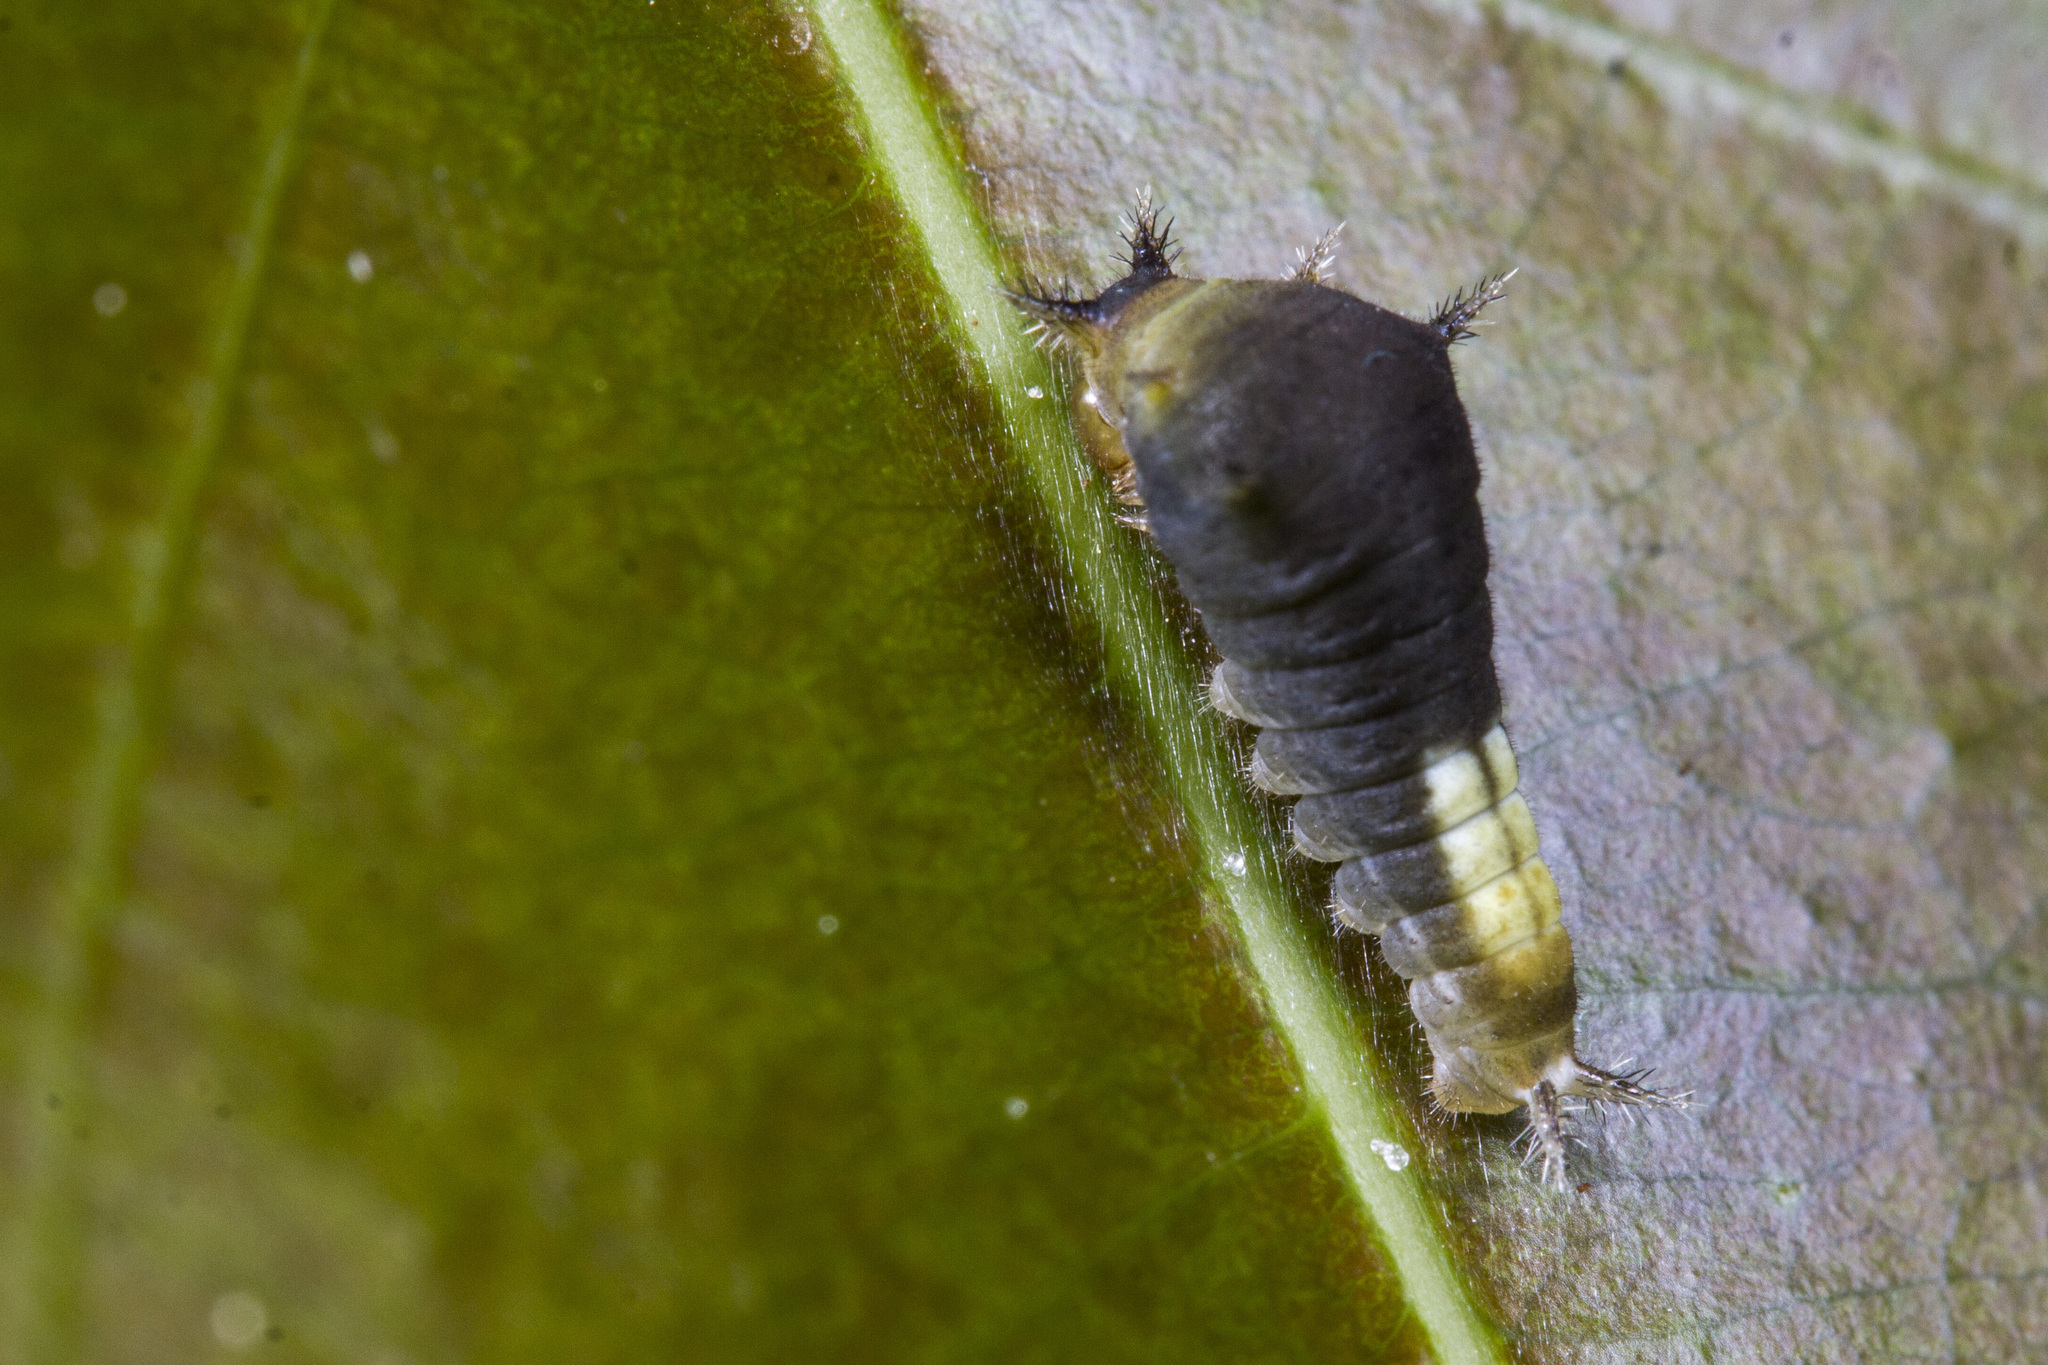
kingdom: Animalia
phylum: Arthropoda
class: Insecta
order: Lepidoptera
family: Papilionidae
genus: Graphium
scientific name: Graphium agamemnon
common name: Tailed jay
